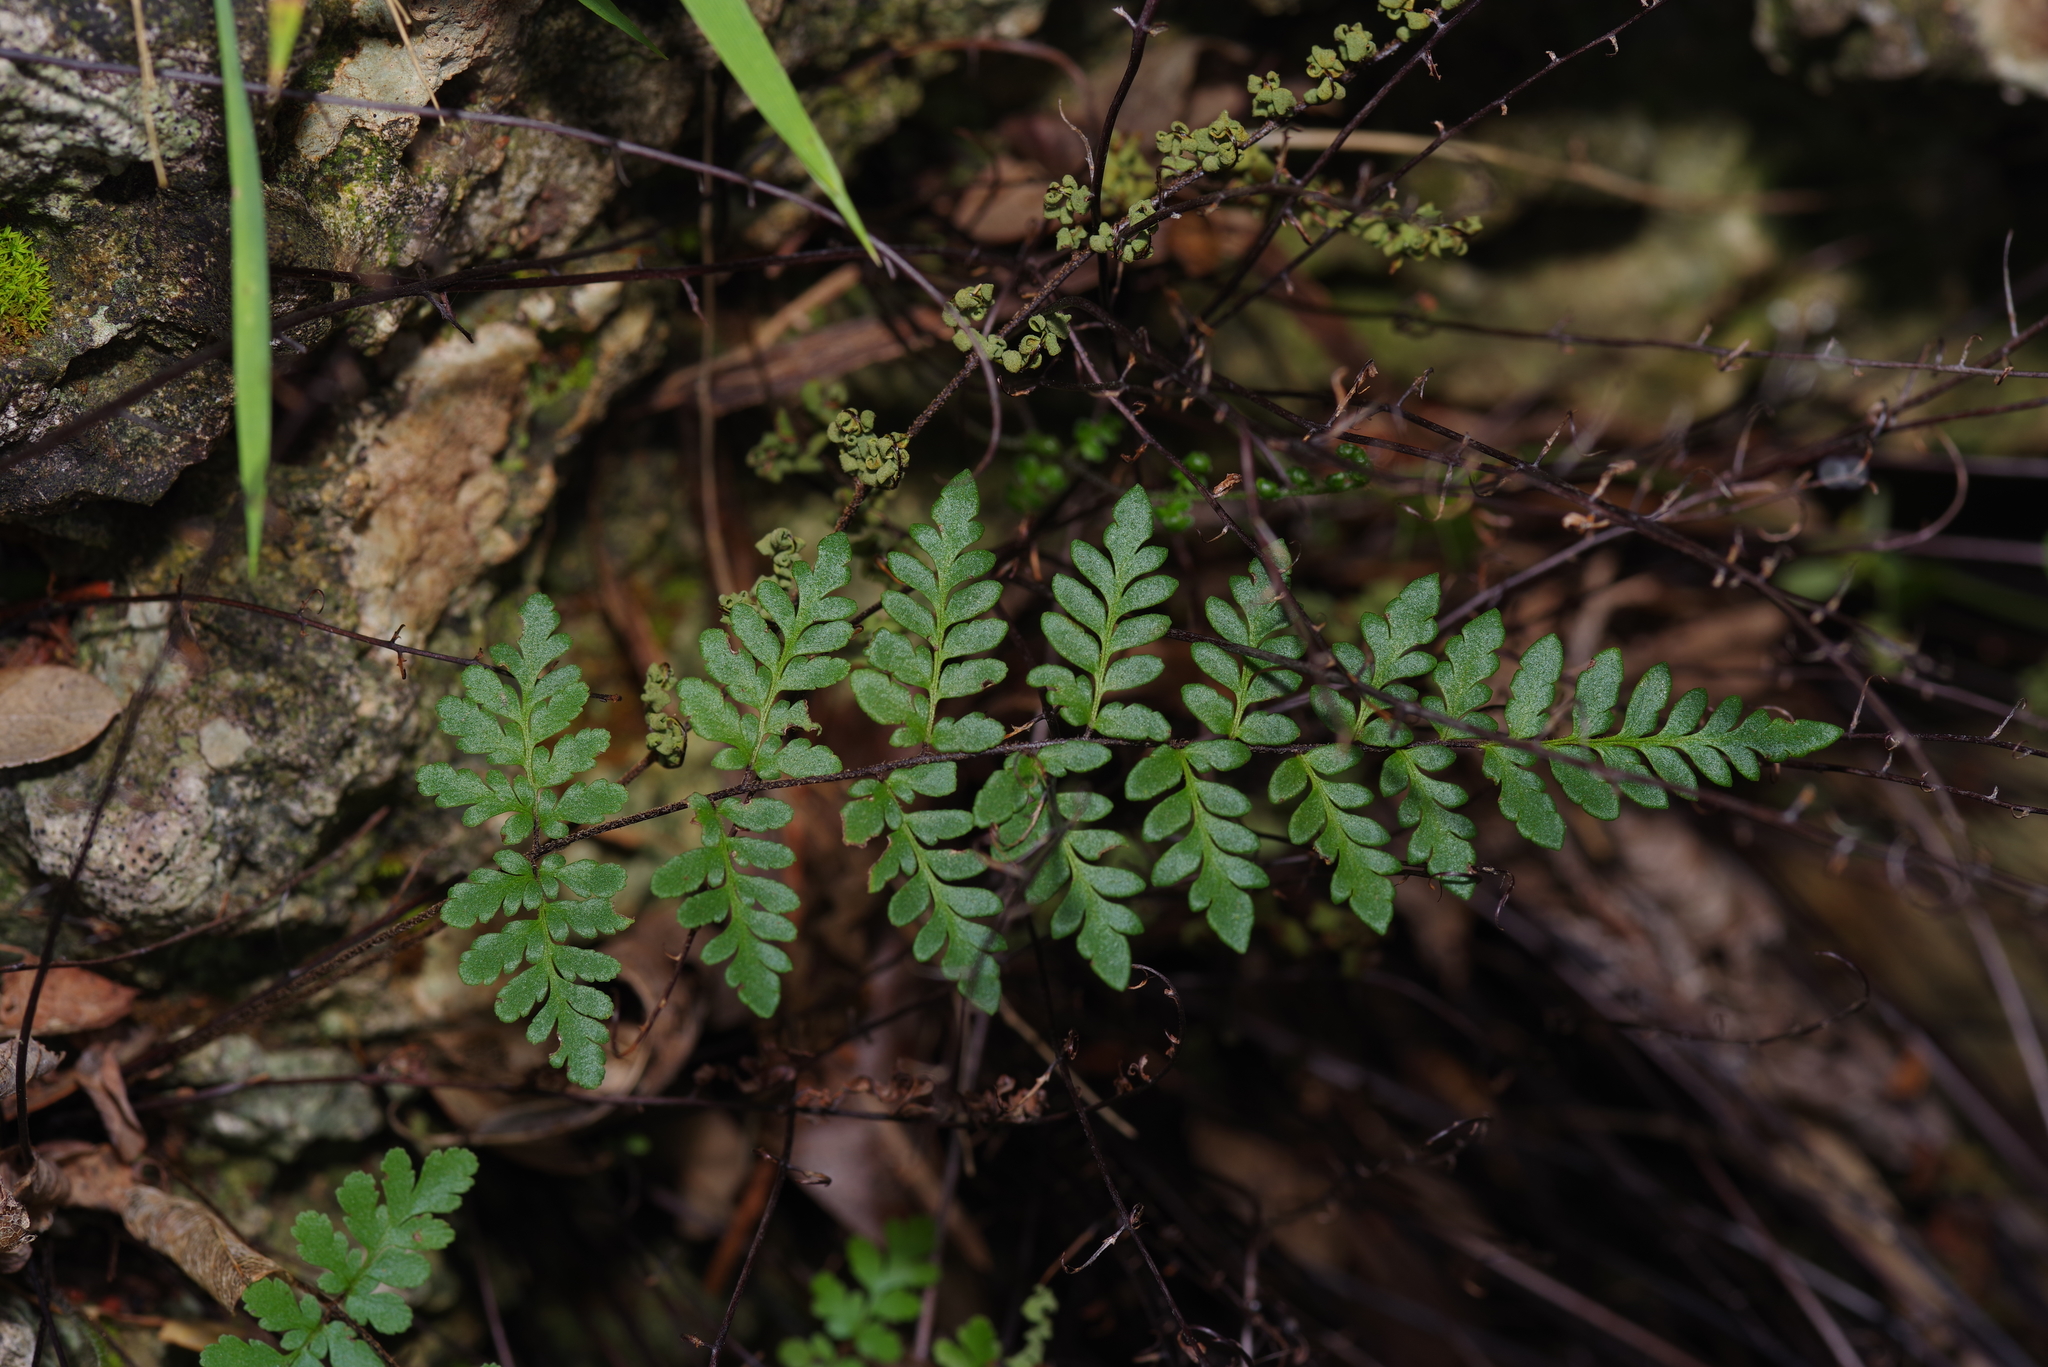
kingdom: Plantae
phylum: Tracheophyta
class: Polypodiopsida
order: Polypodiales
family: Pteridaceae
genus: Myriopteris
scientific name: Myriopteris alabamensis
